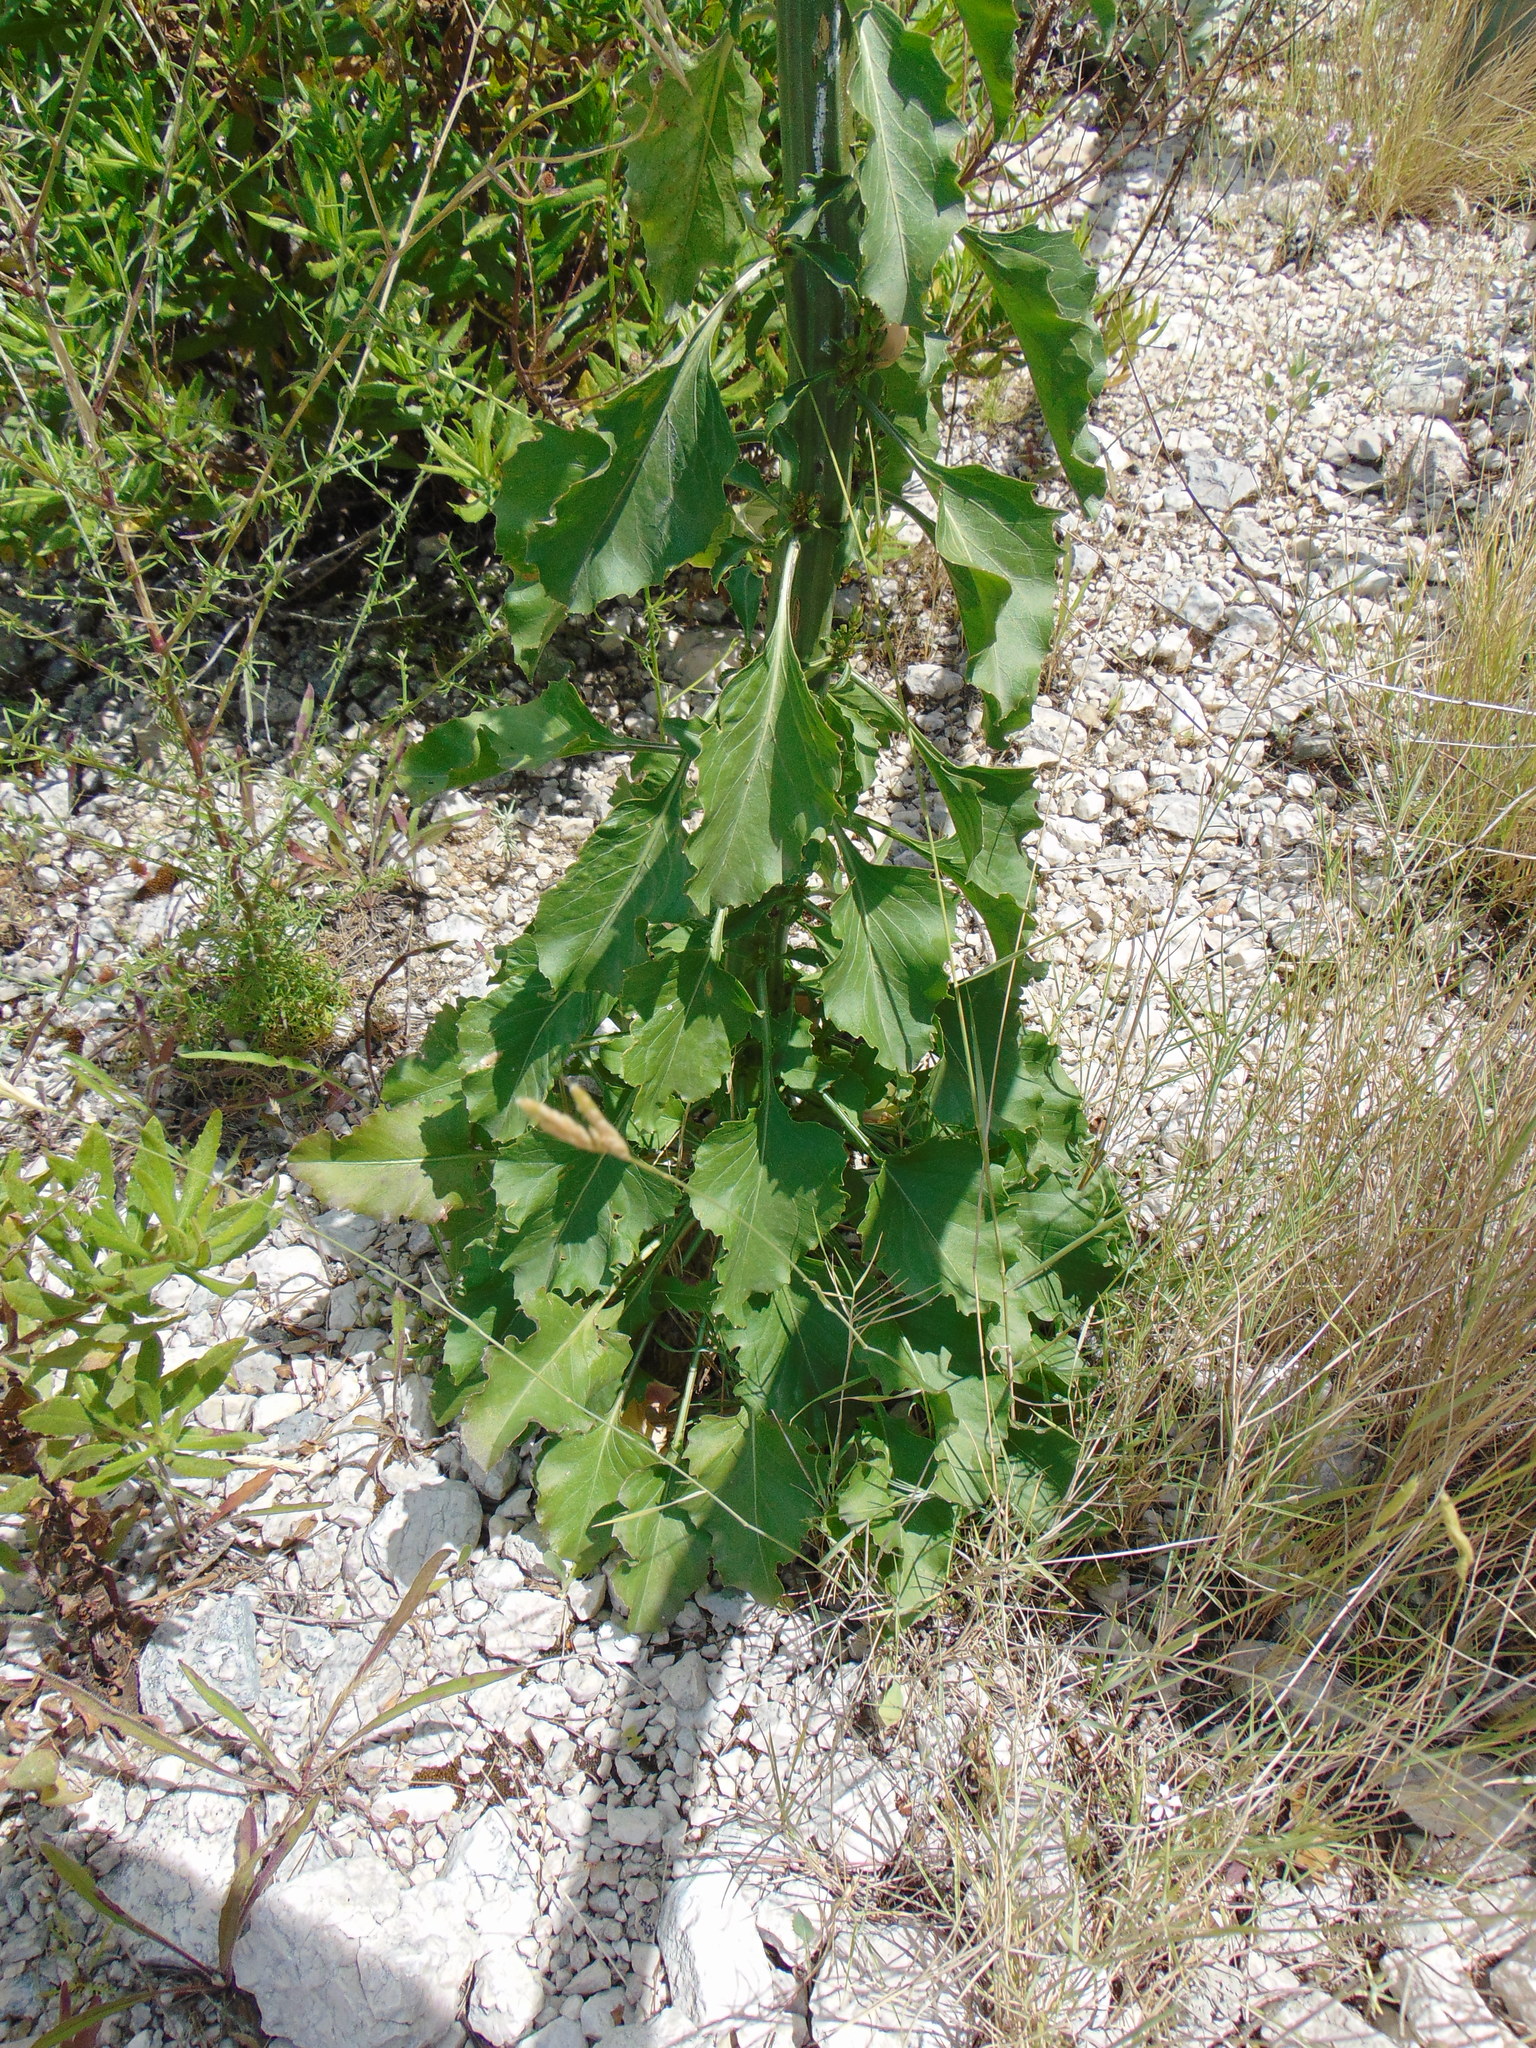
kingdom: Plantae
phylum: Tracheophyta
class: Magnoliopsida
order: Asterales
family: Campanulaceae
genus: Campanula
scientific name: Campanula pyramidalis
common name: Chimney bellflower
